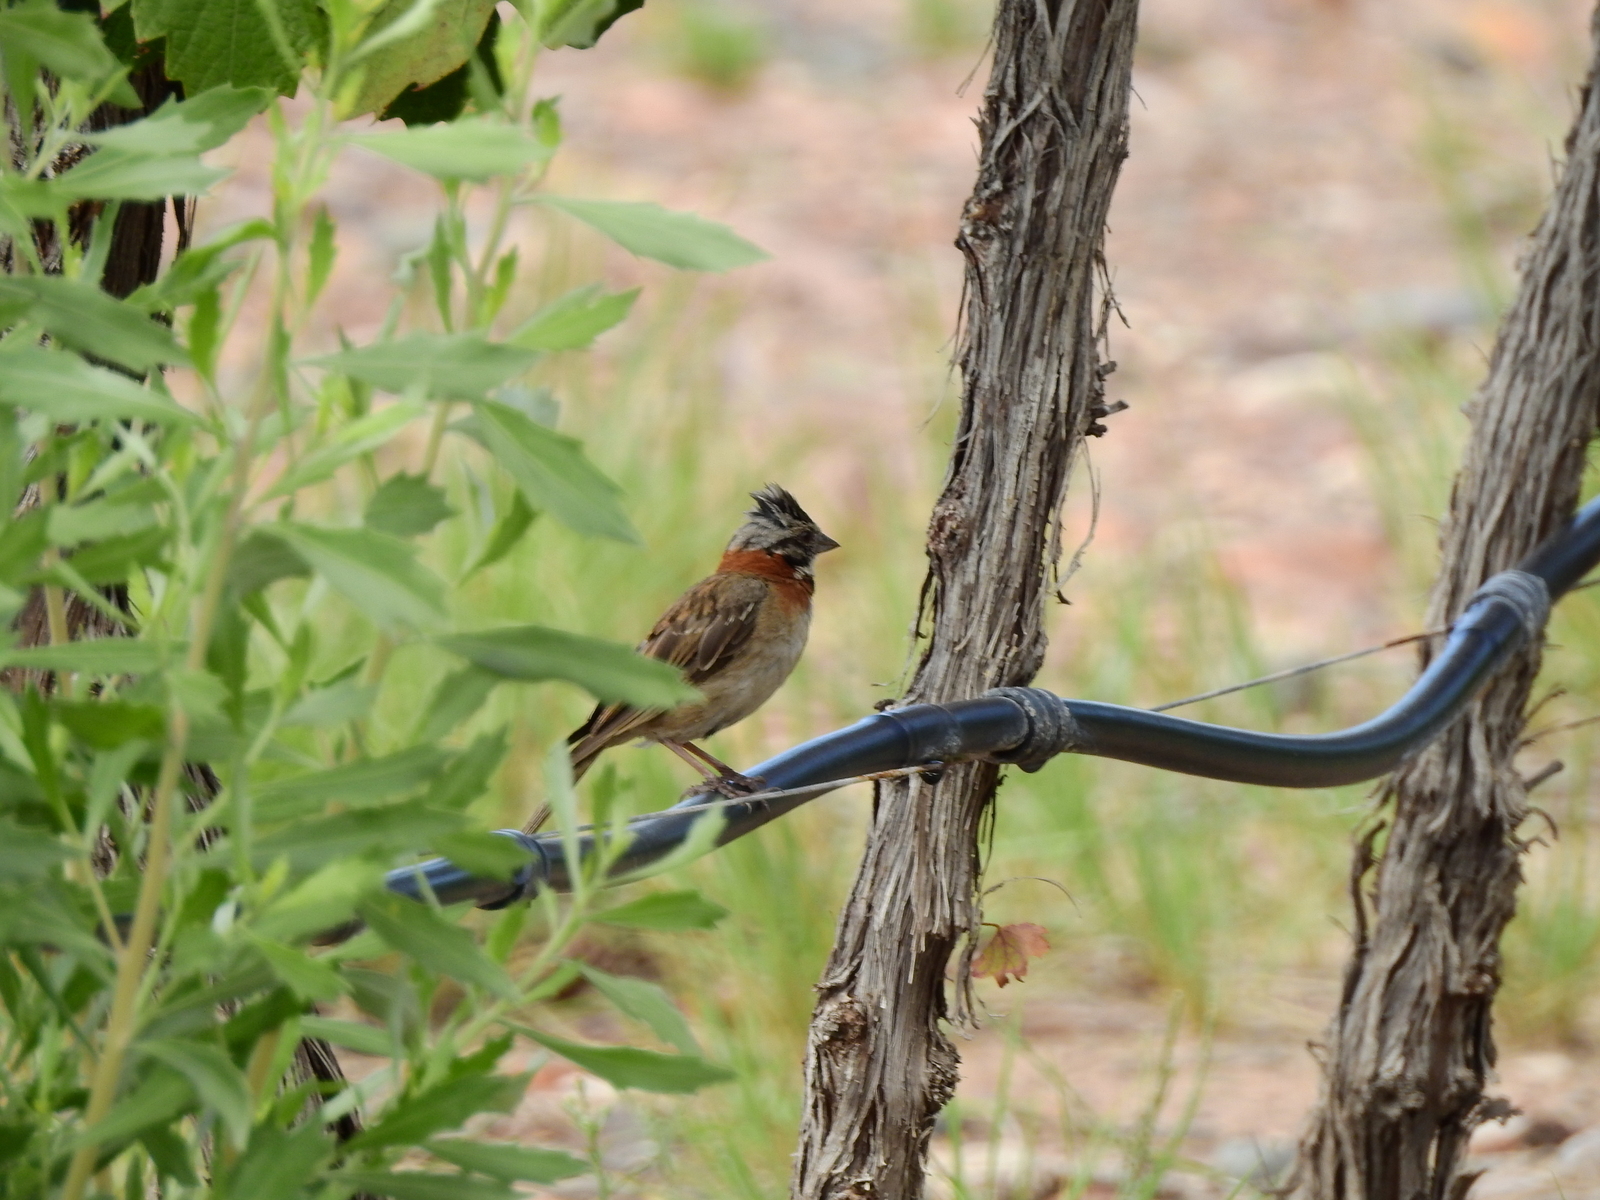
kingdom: Animalia
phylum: Chordata
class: Aves
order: Passeriformes
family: Passerellidae
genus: Zonotrichia
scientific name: Zonotrichia capensis
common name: Rufous-collared sparrow
